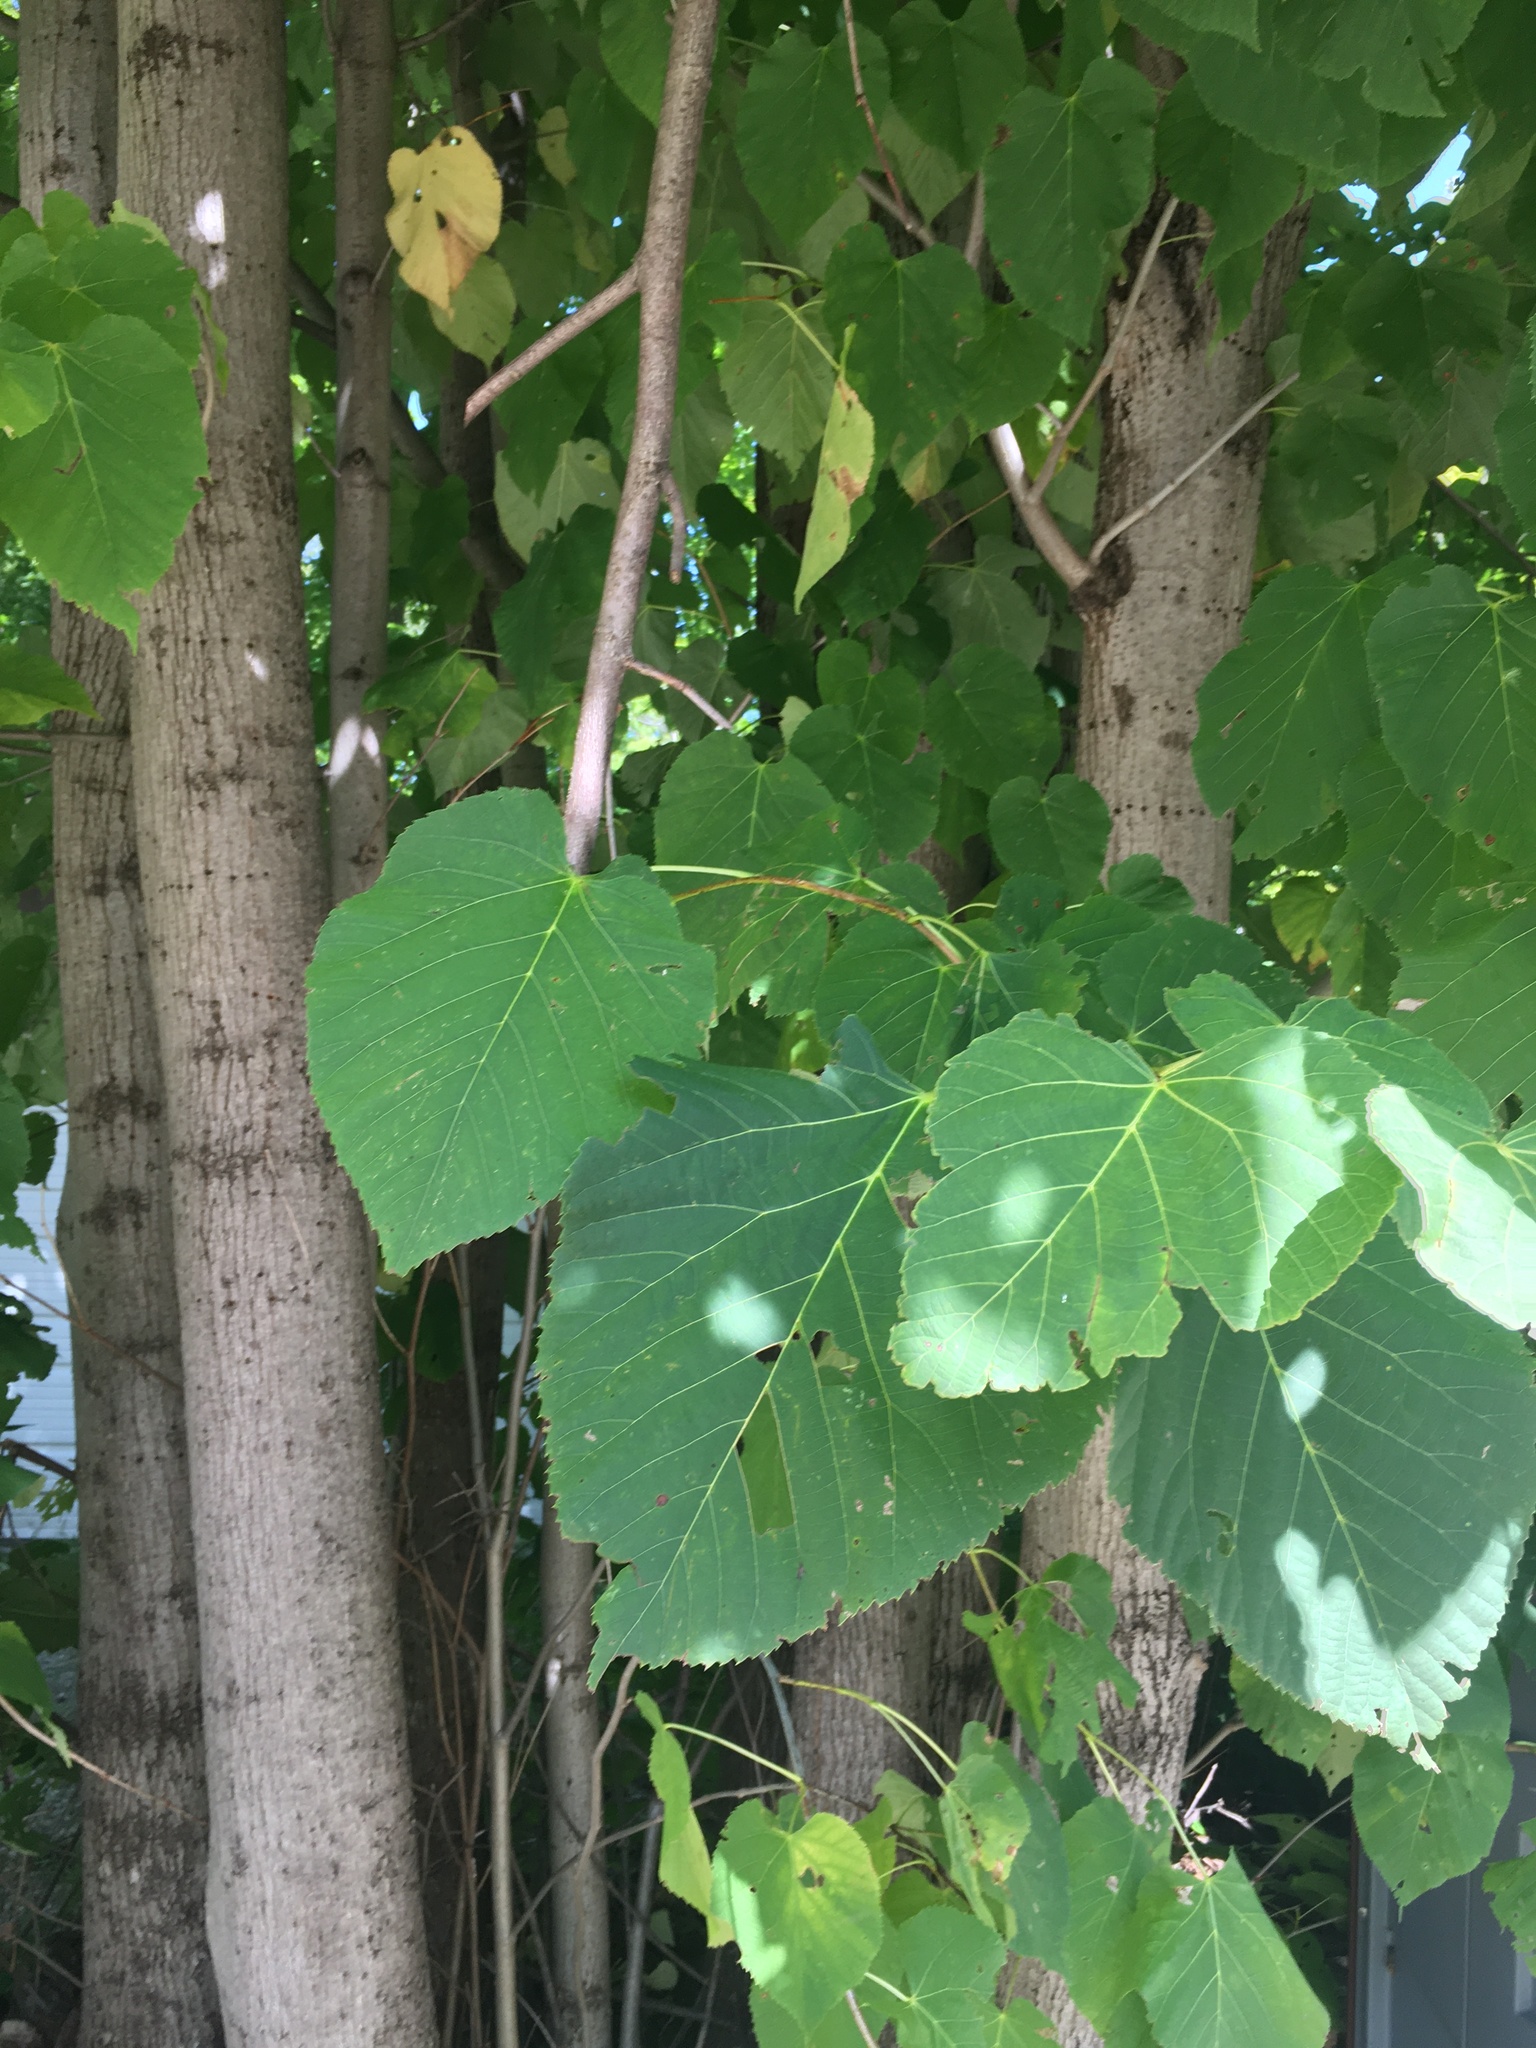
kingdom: Plantae
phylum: Tracheophyta
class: Magnoliopsida
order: Malvales
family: Malvaceae
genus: Tilia
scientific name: Tilia americana
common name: Basswood
